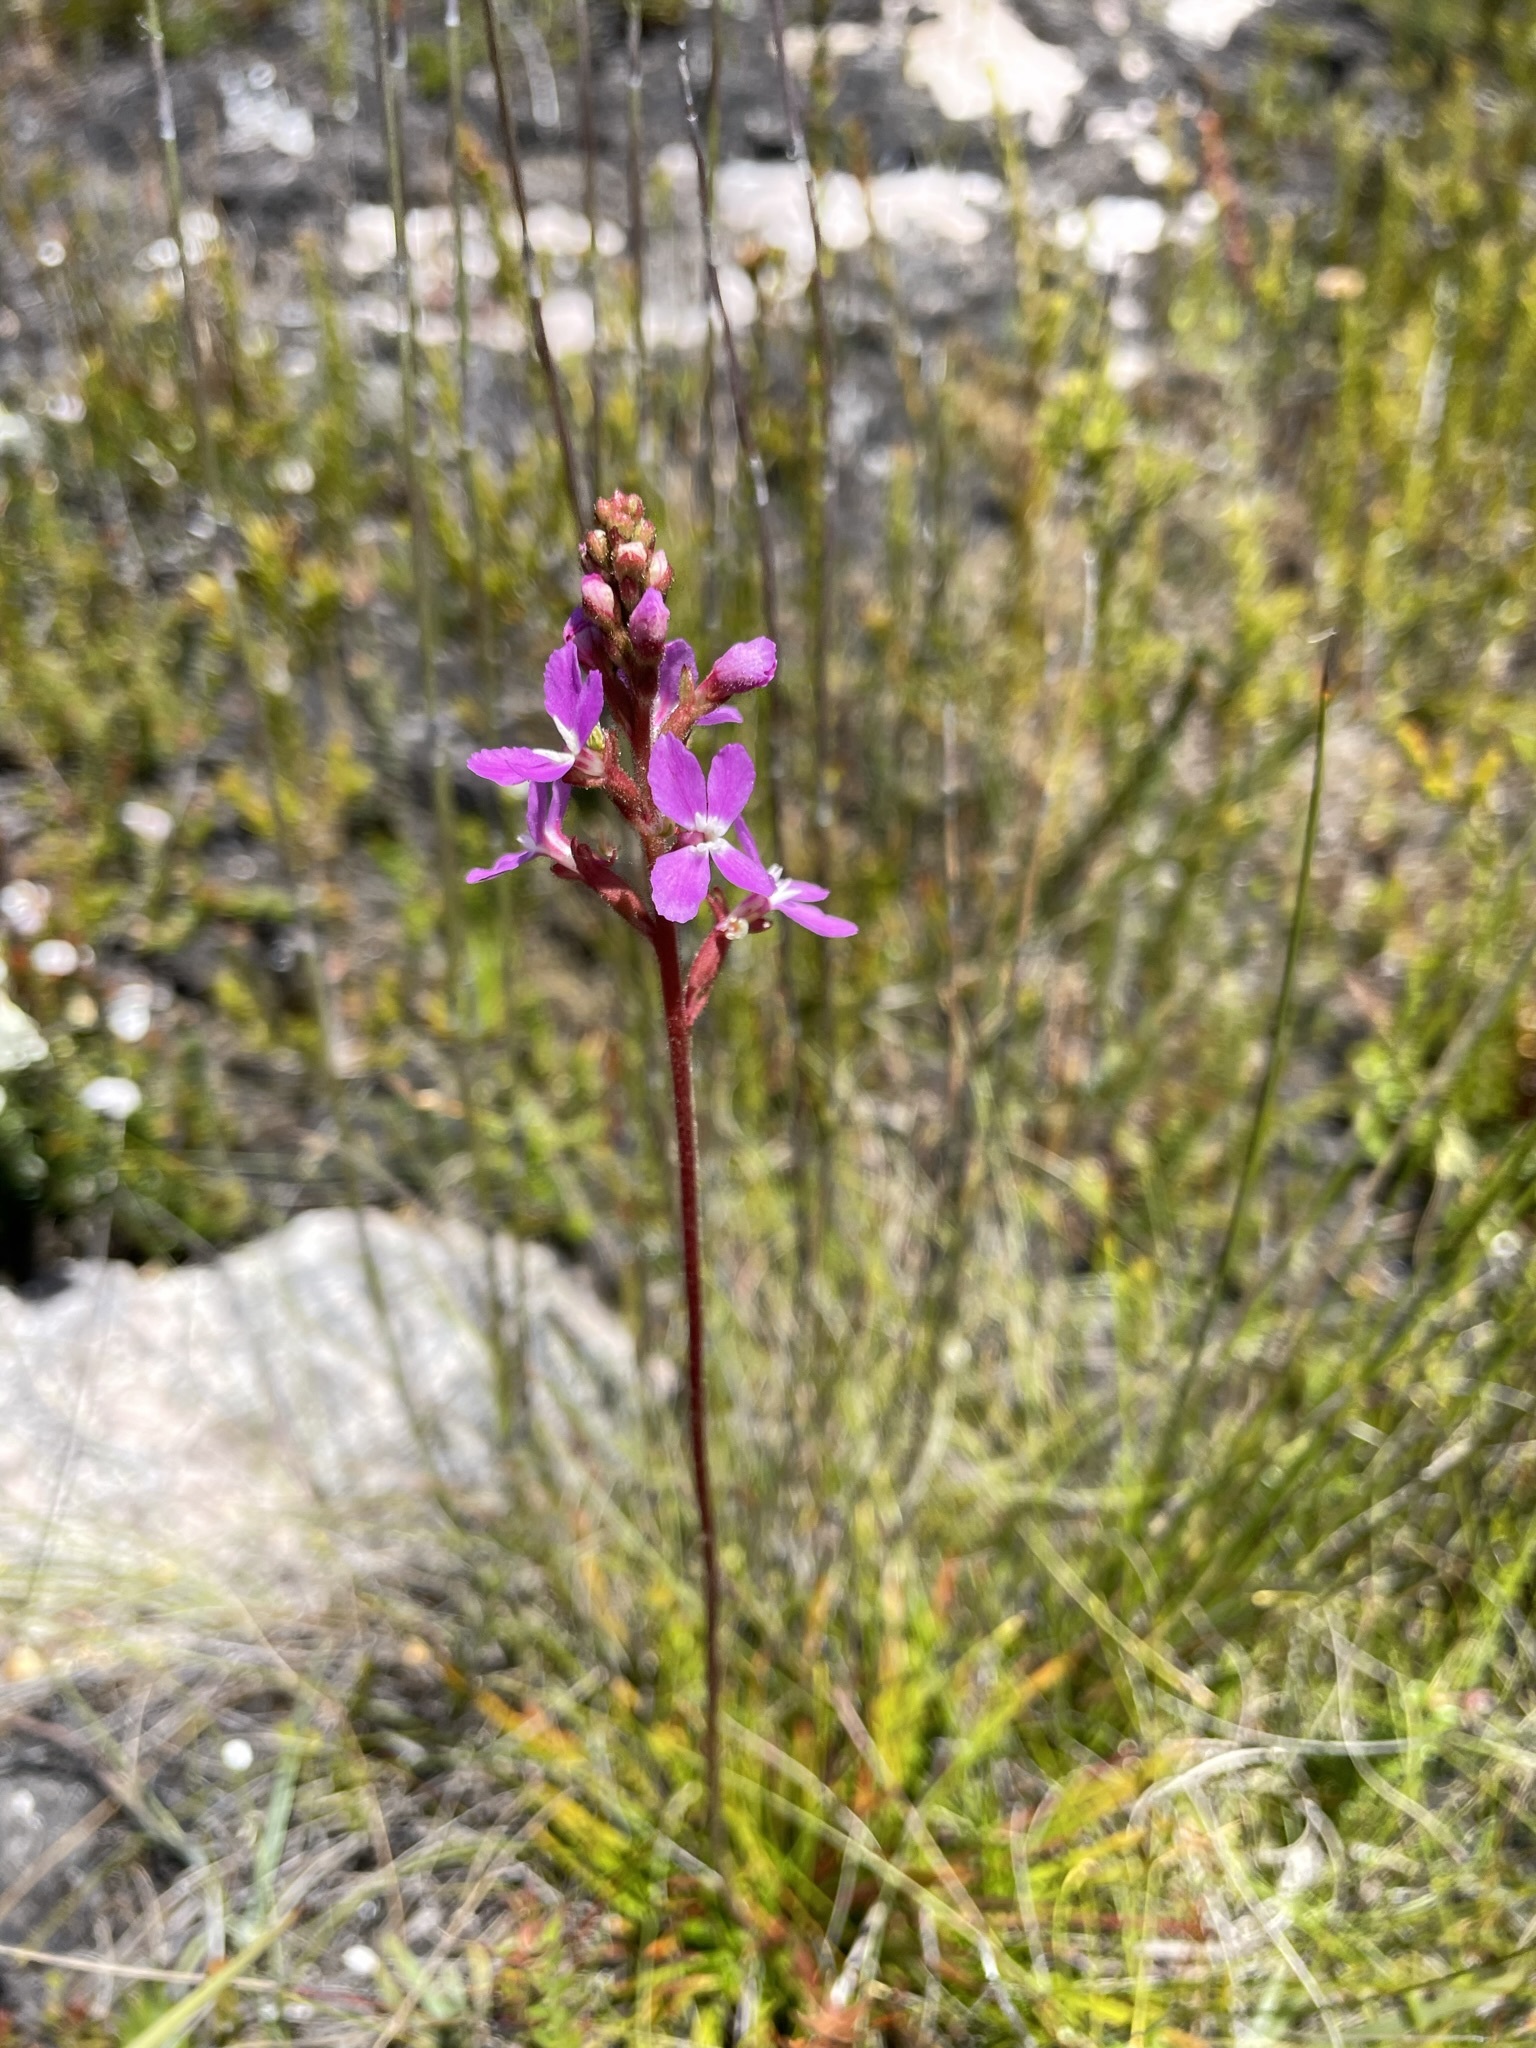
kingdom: Plantae
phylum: Tracheophyta
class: Magnoliopsida
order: Asterales
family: Stylidiaceae
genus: Stylidium
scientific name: Stylidium graminifolium
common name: Grass triggerplant
